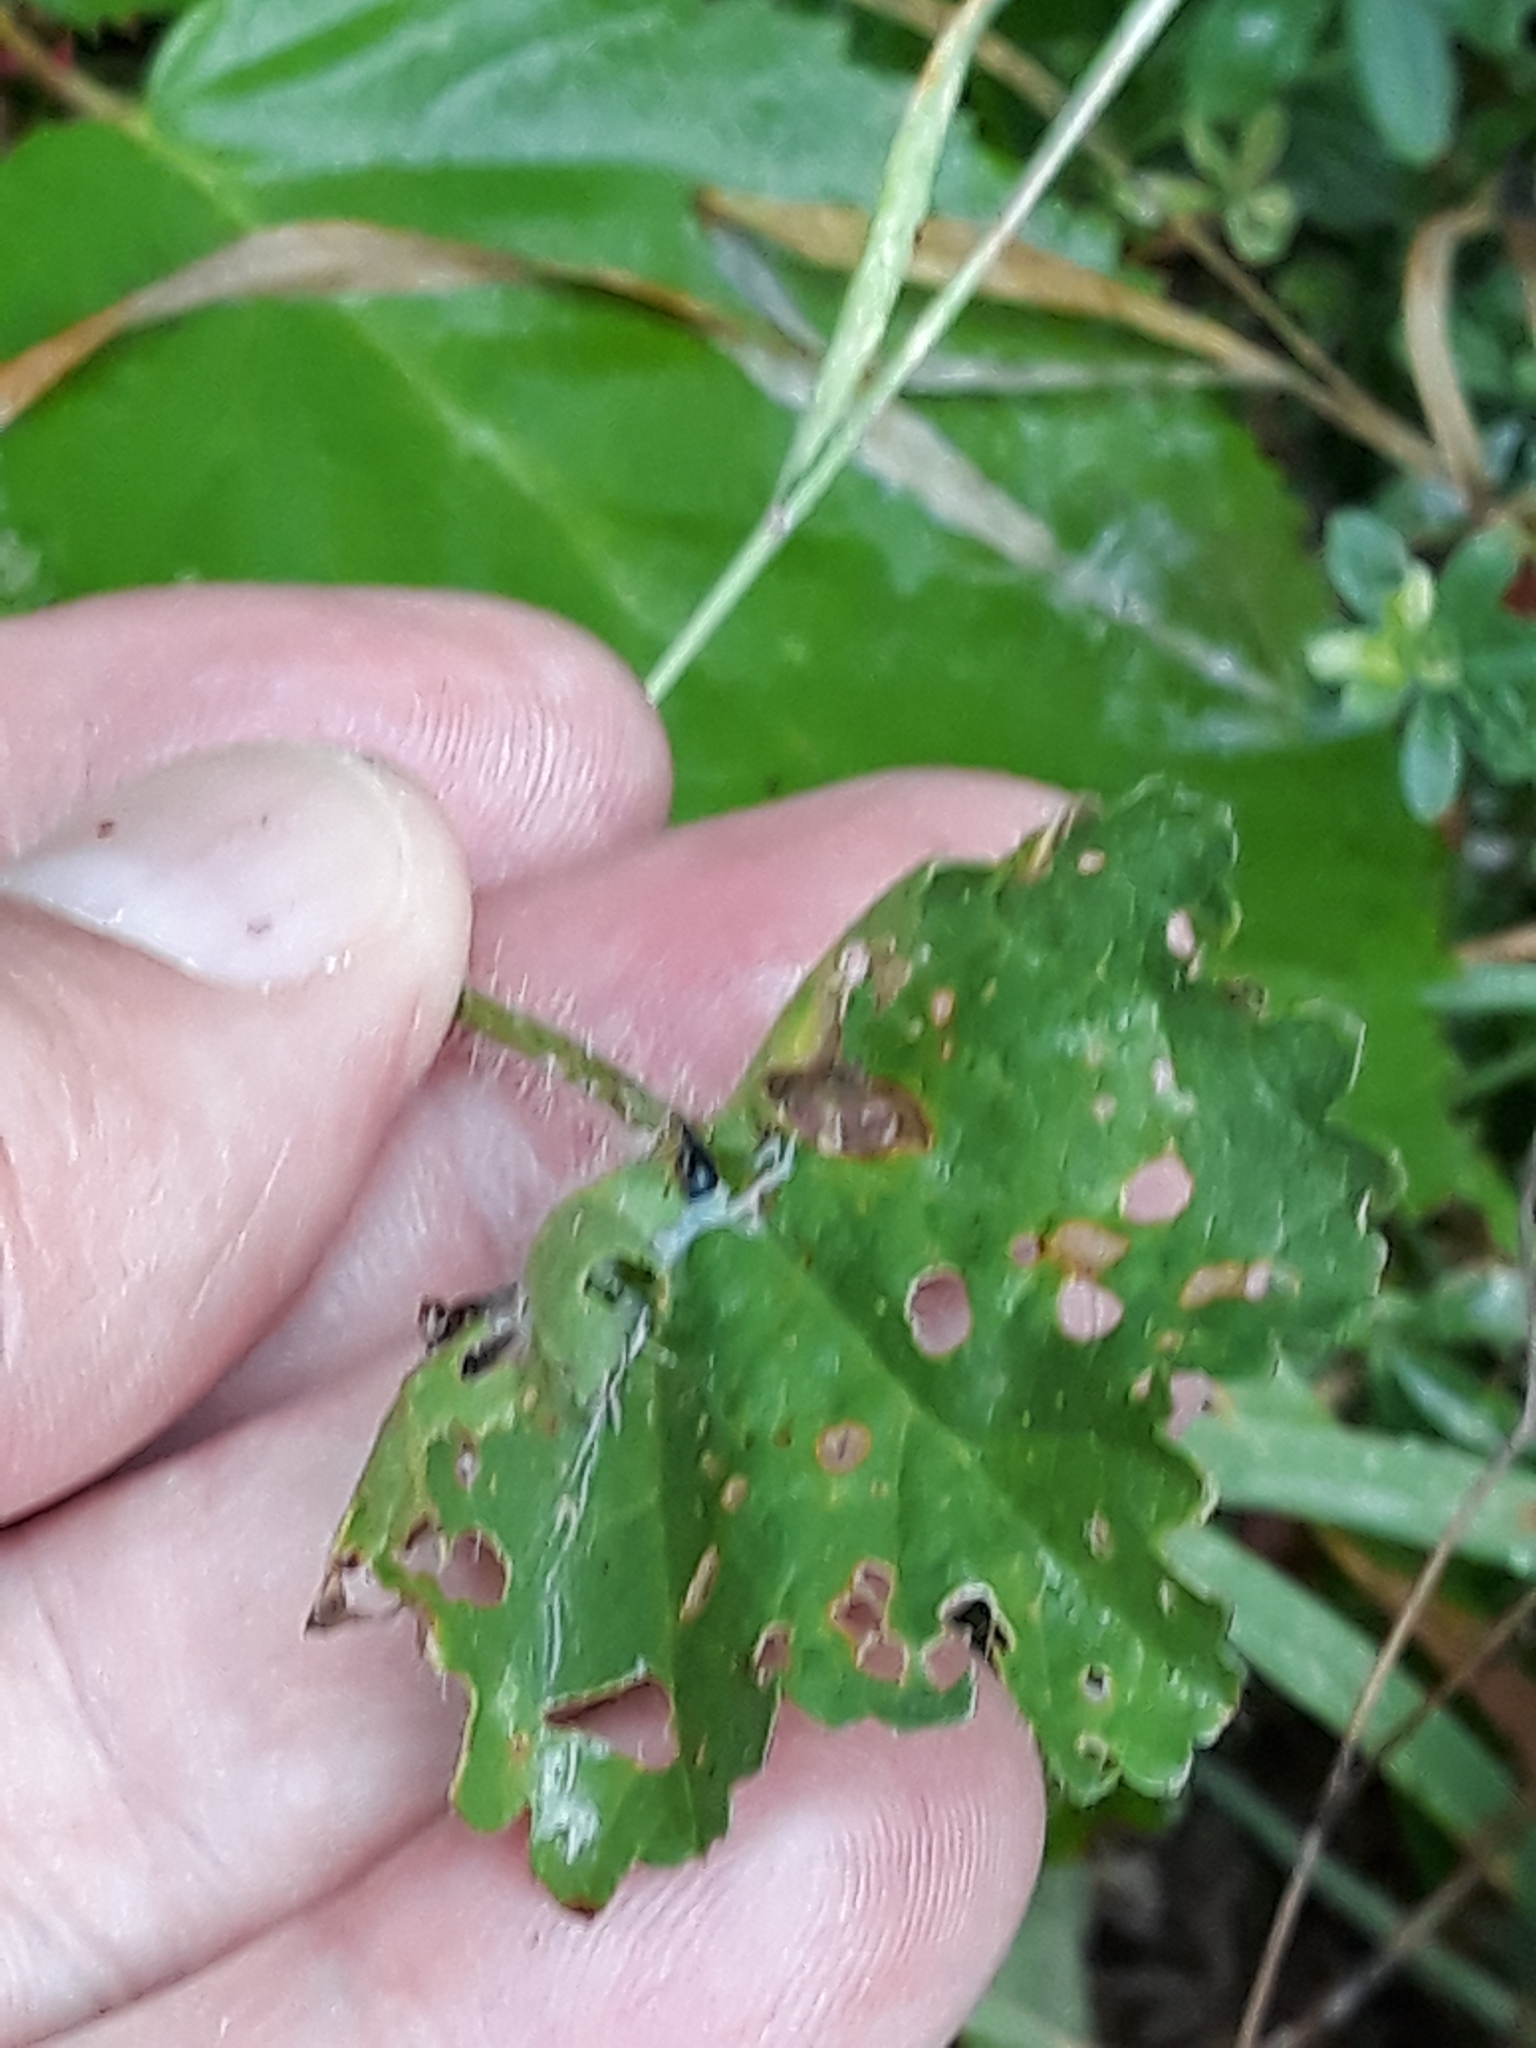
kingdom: Plantae
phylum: Tracheophyta
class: Magnoliopsida
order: Malvales
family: Malvaceae
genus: Malva
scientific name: Malva moschata
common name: Musk mallow
